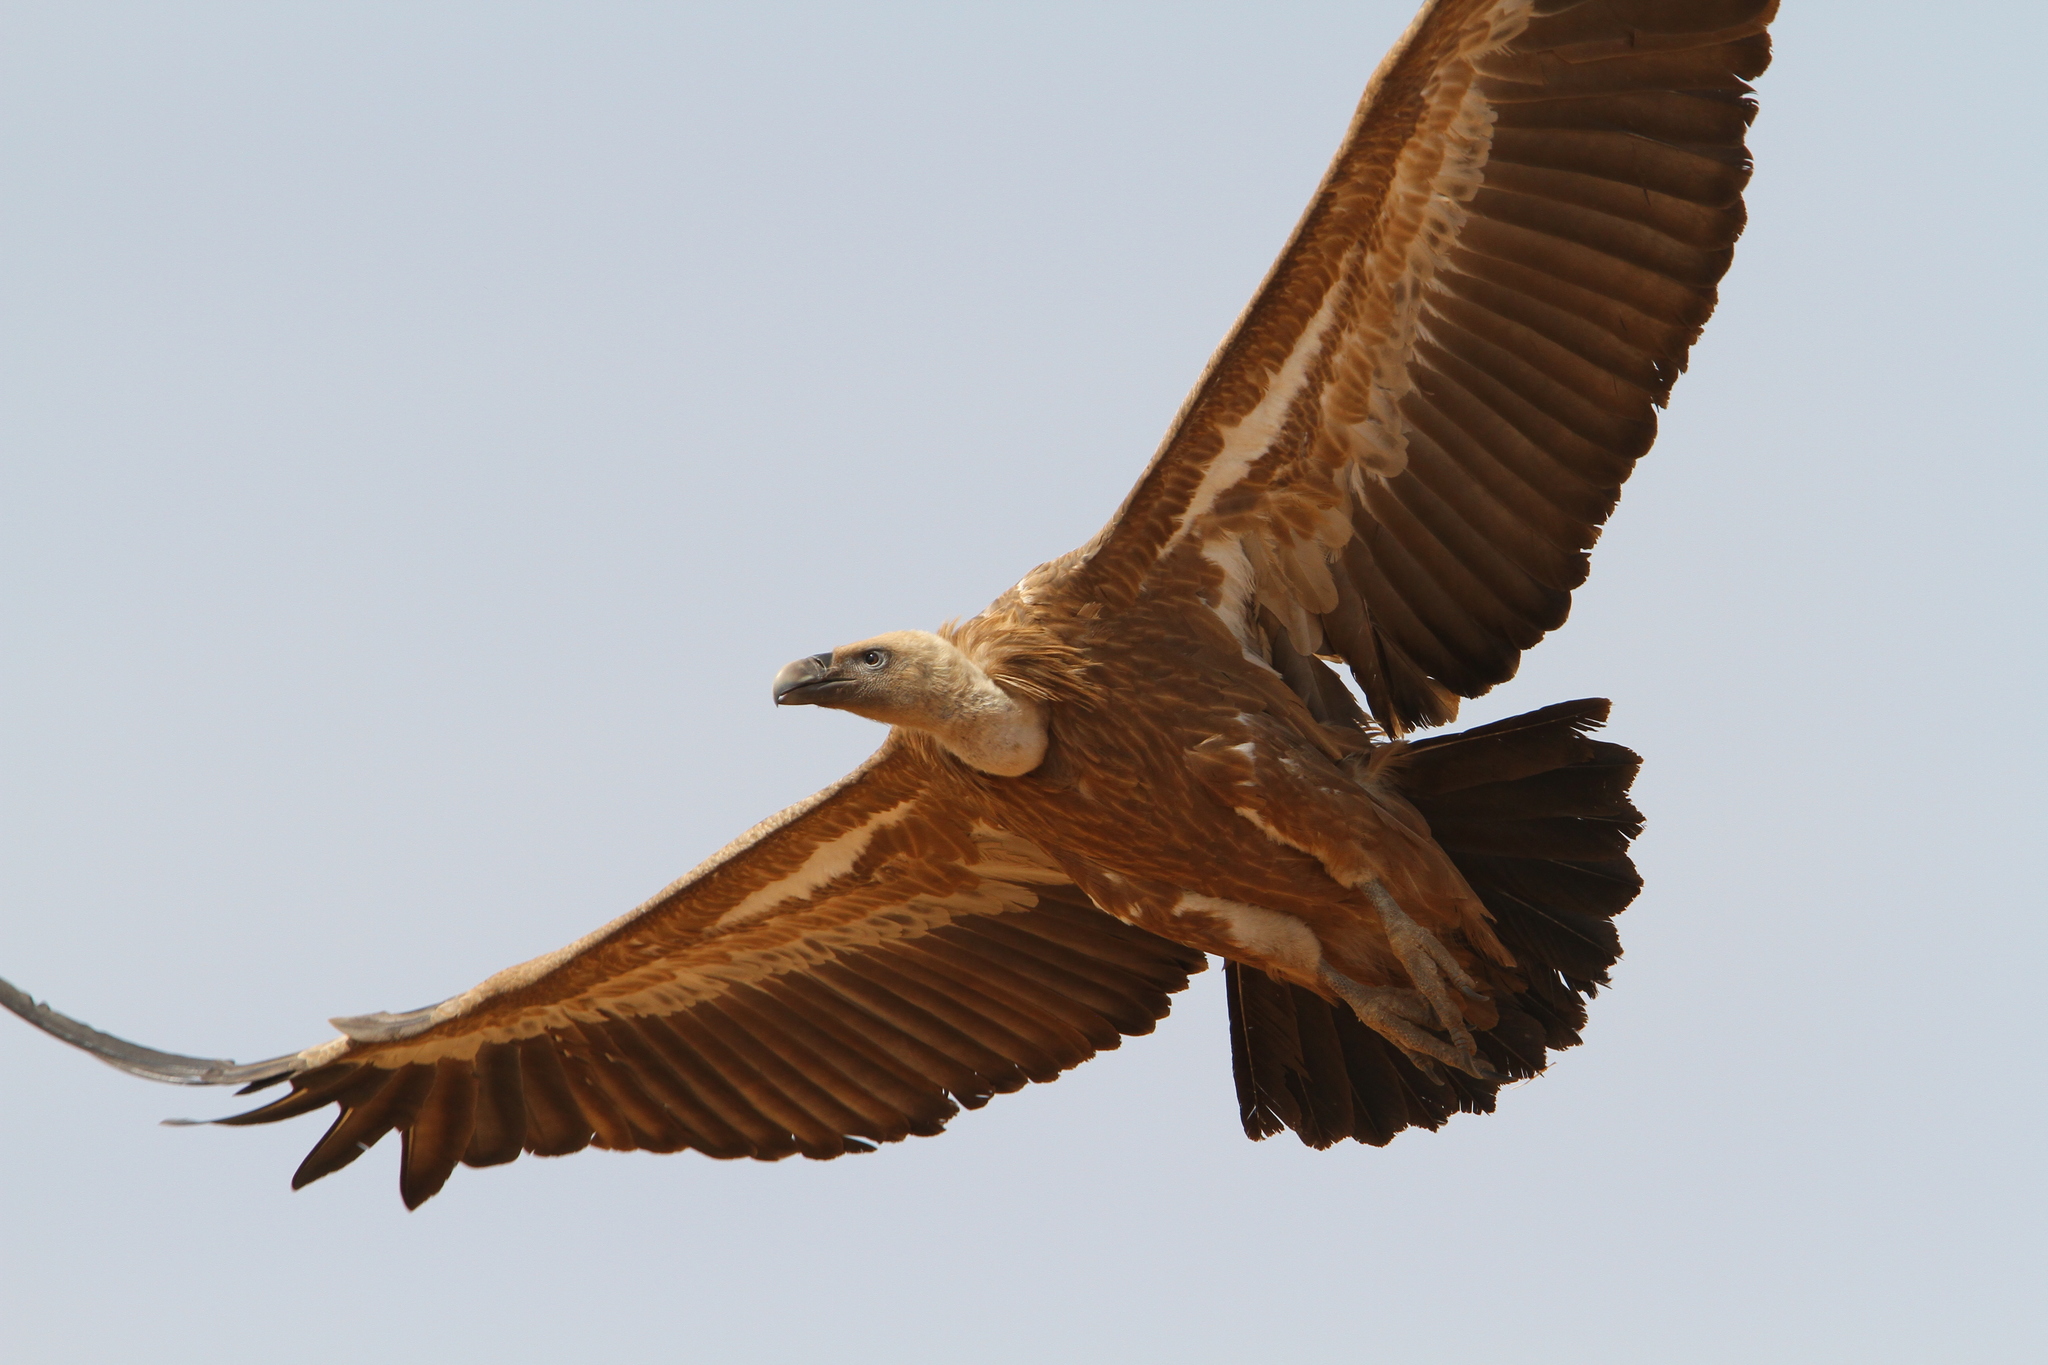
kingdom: Animalia
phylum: Chordata
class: Aves
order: Accipitriformes
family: Accipitridae
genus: Gyps
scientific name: Gyps fulvus
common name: Griffon vulture
